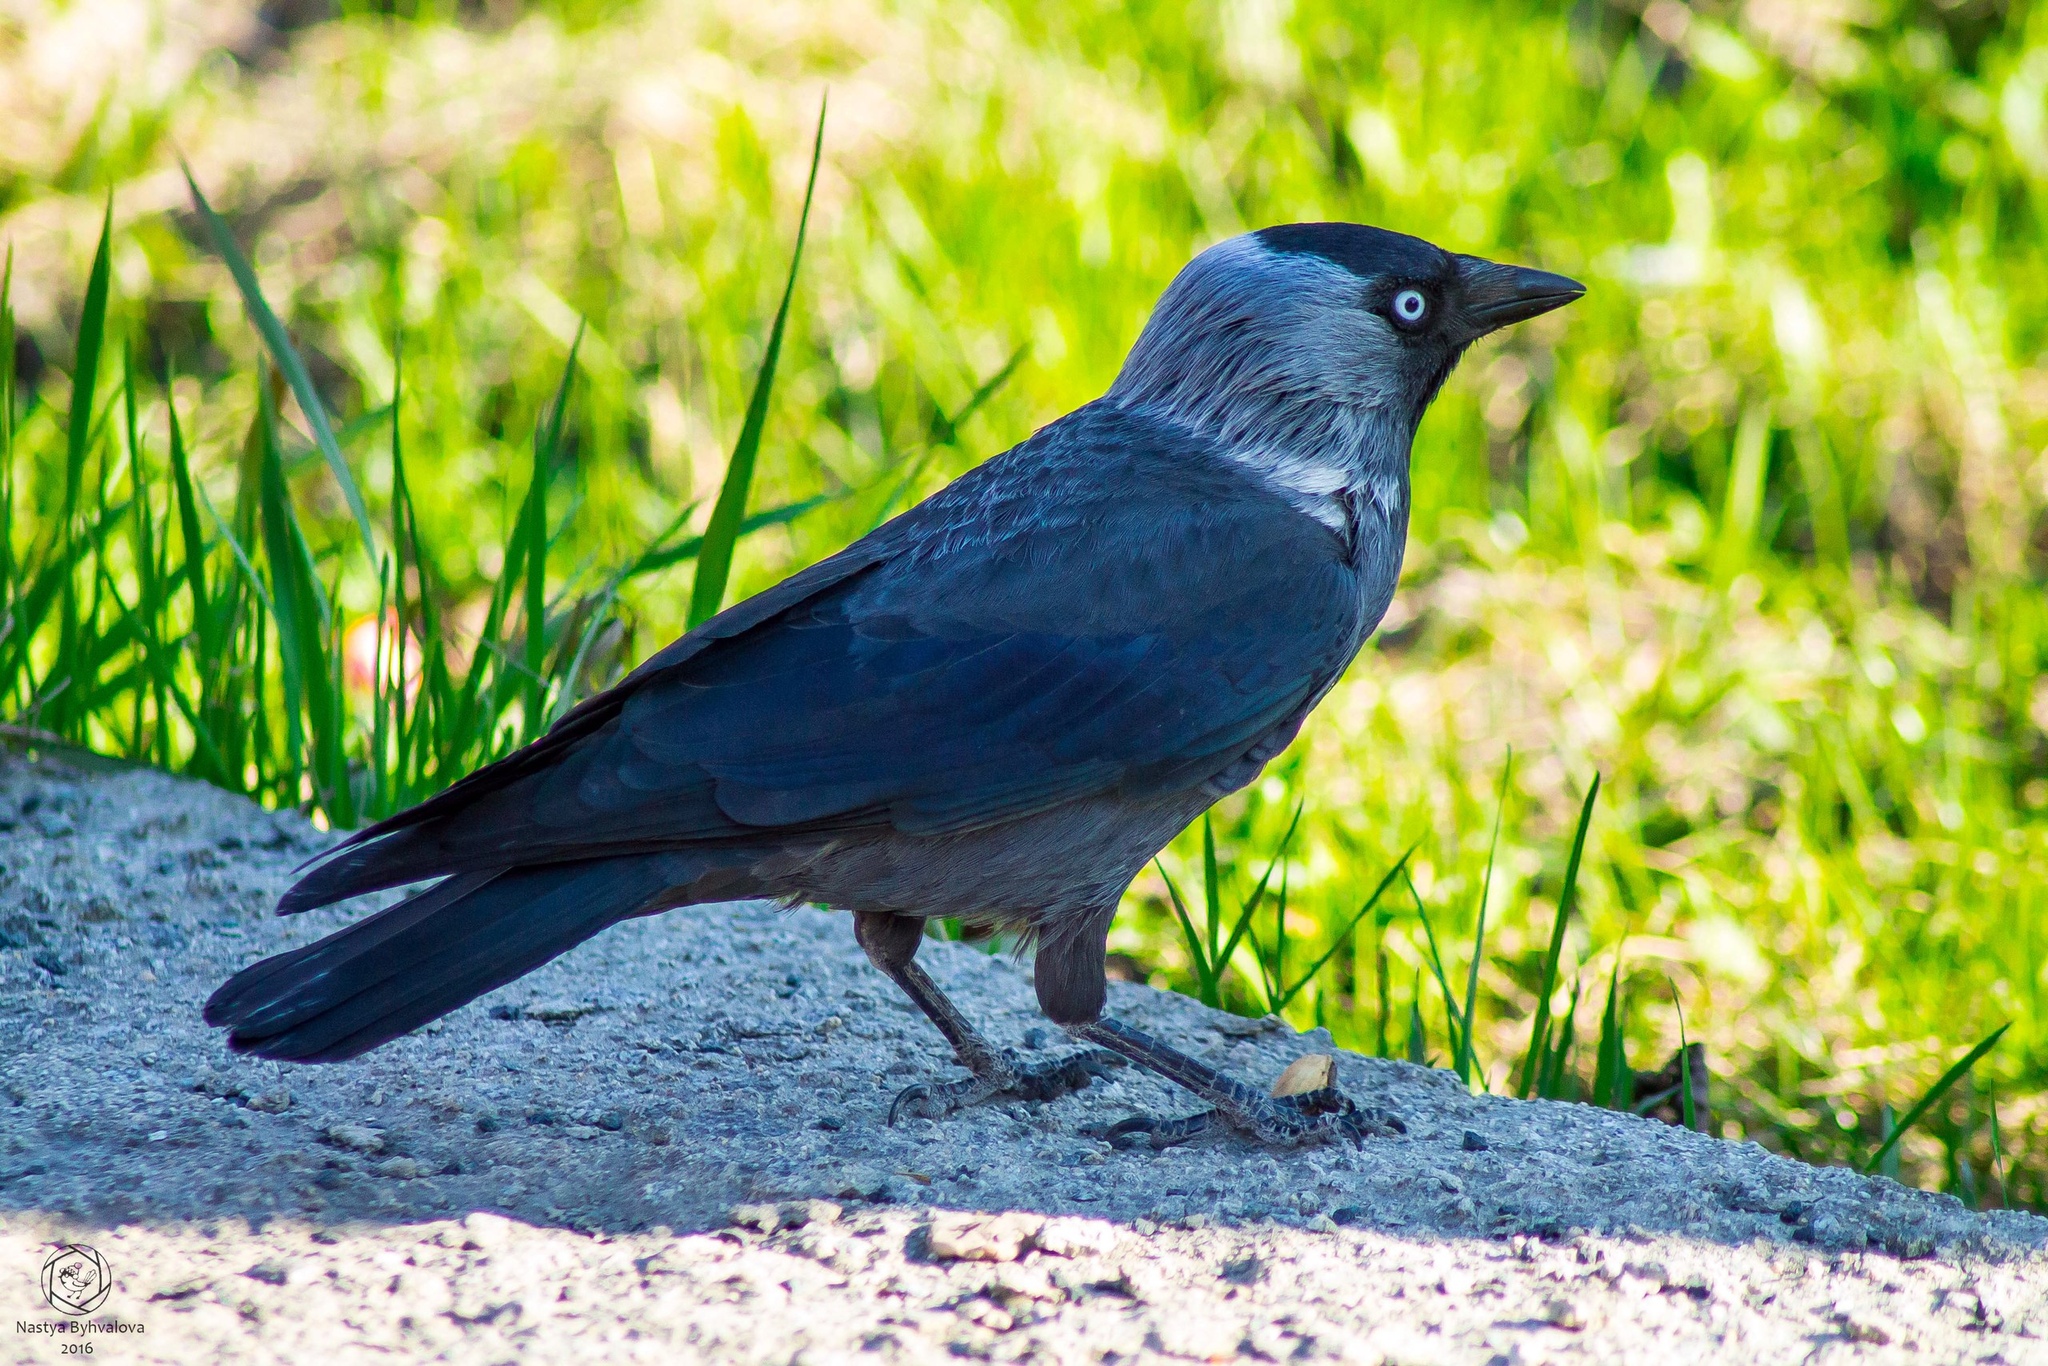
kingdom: Animalia
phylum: Chordata
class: Aves
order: Passeriformes
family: Corvidae
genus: Coloeus
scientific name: Coloeus monedula
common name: Western jackdaw
